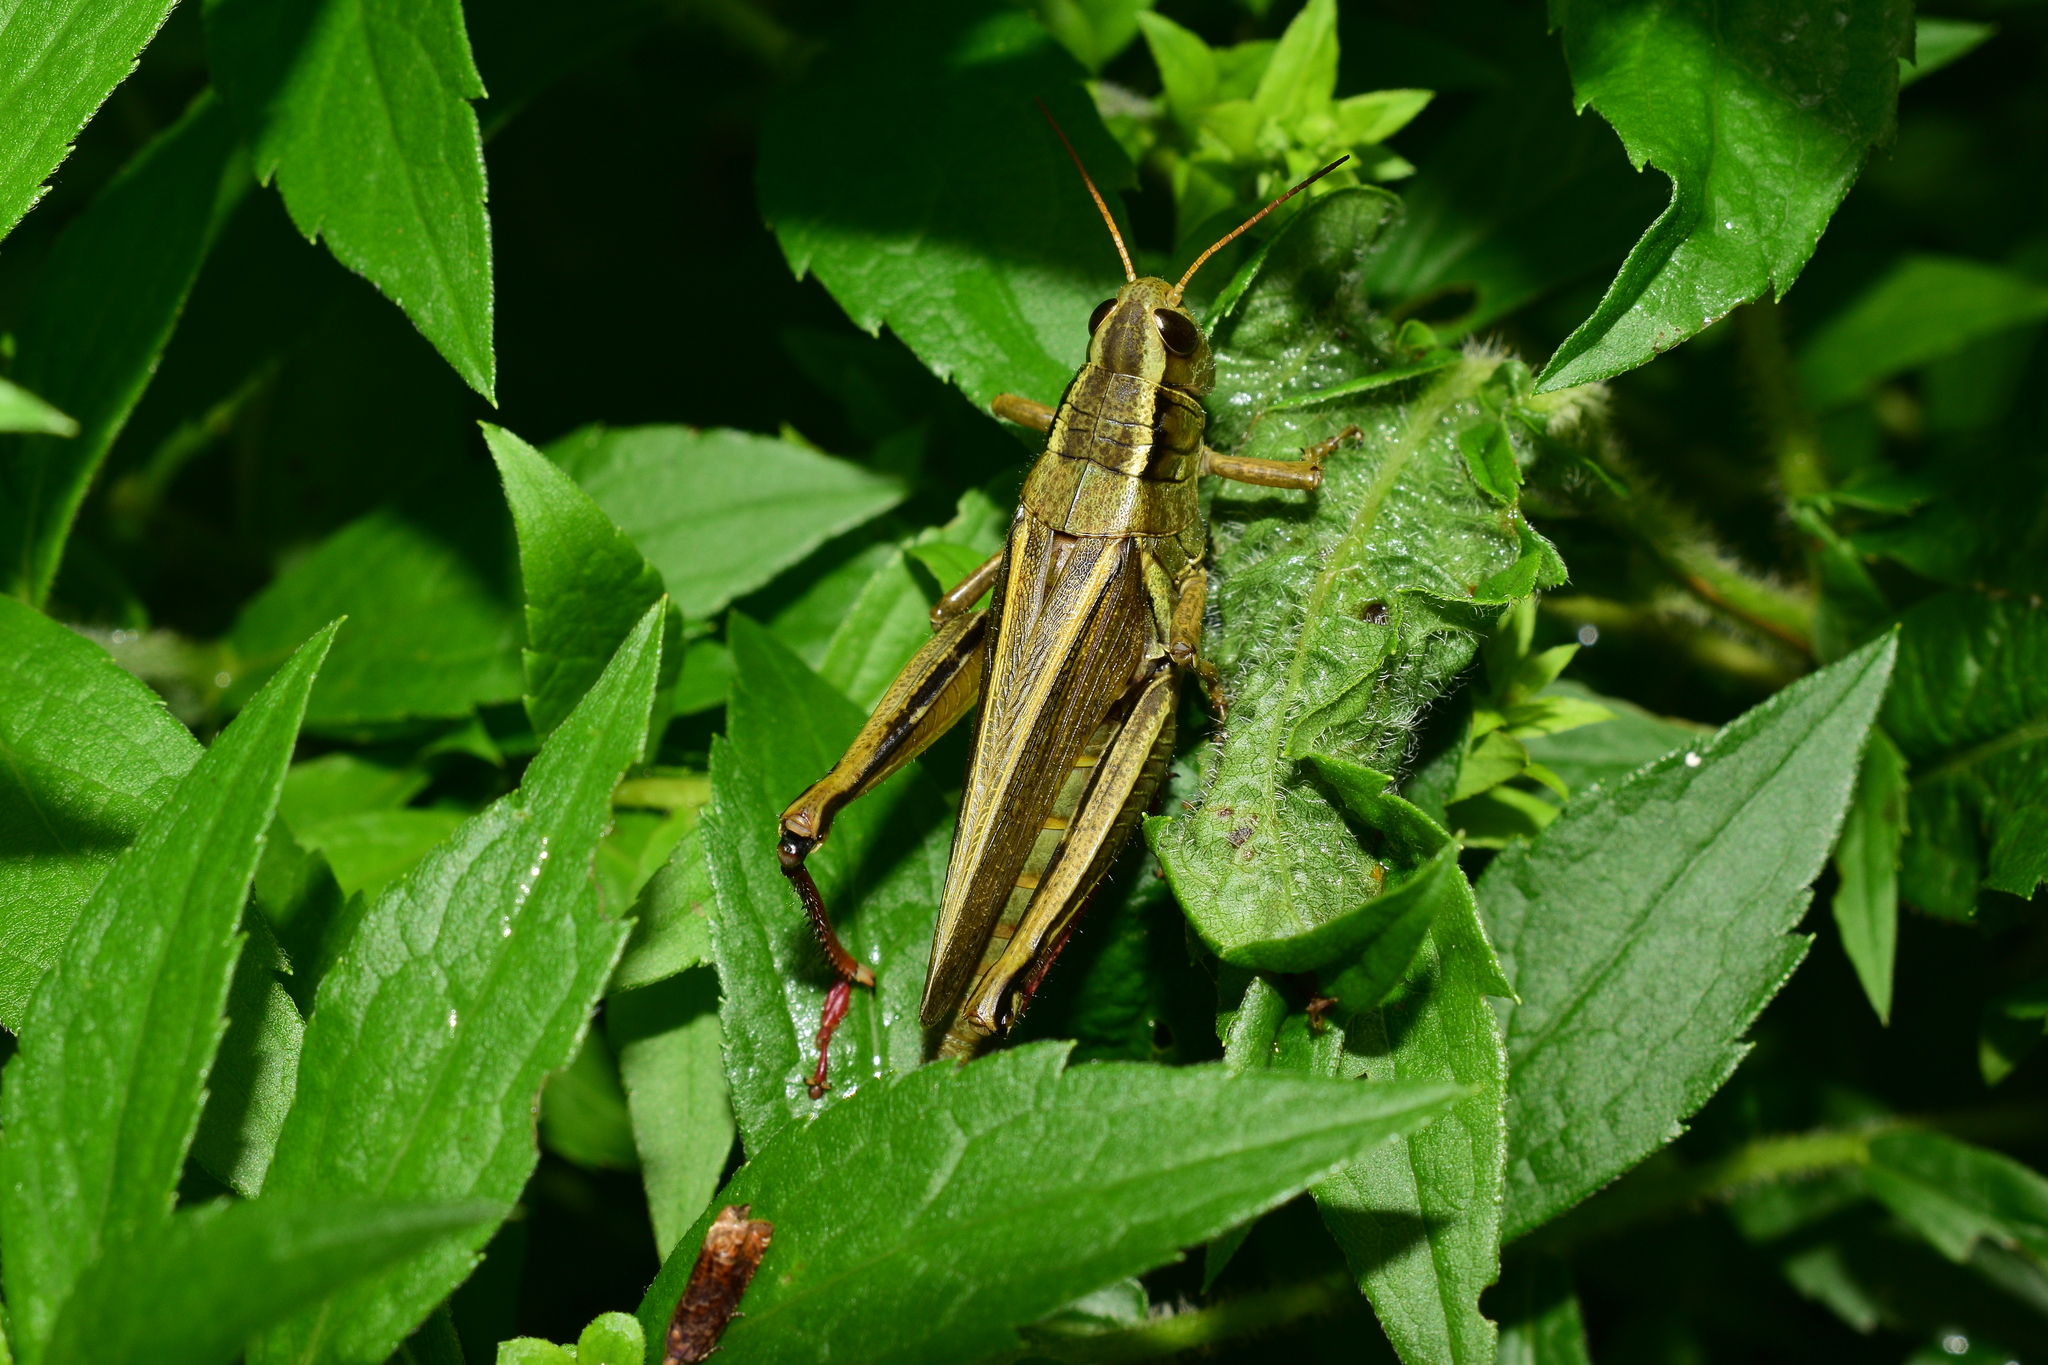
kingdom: Animalia
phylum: Arthropoda
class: Insecta
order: Orthoptera
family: Acrididae
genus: Melanoplus
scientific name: Melanoplus bivittatus
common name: Two-striped grasshopper
